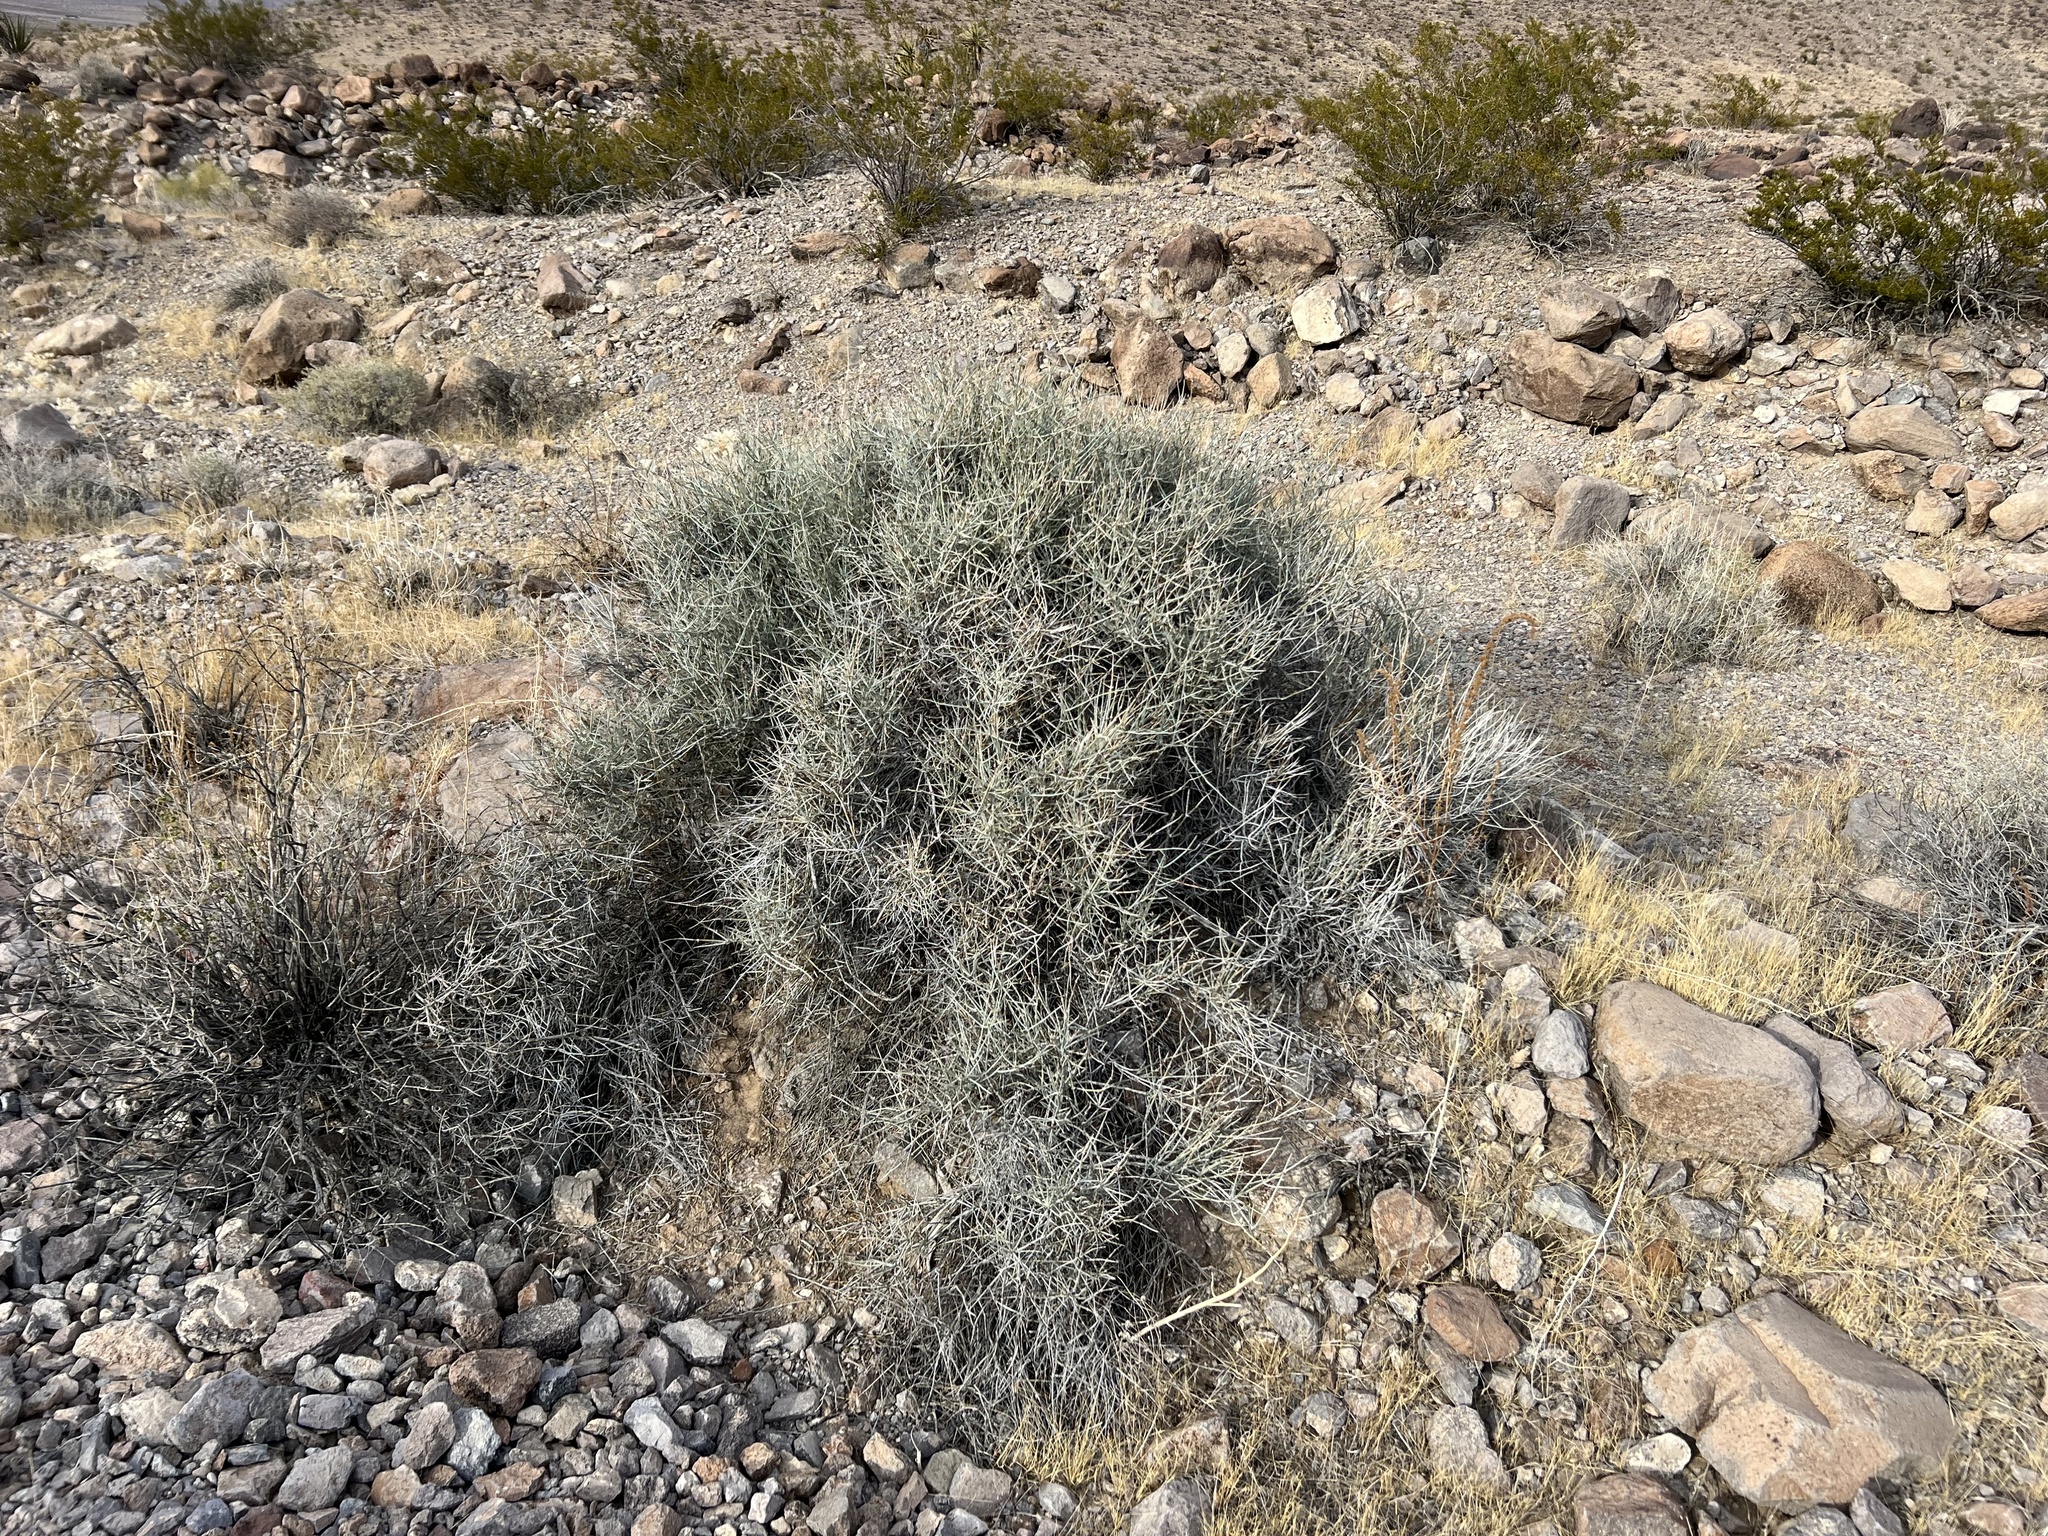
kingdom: Plantae
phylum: Tracheophyta
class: Gnetopsida
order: Ephedrales
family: Ephedraceae
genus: Ephedra
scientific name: Ephedra nevadensis
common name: Gray ephedra
